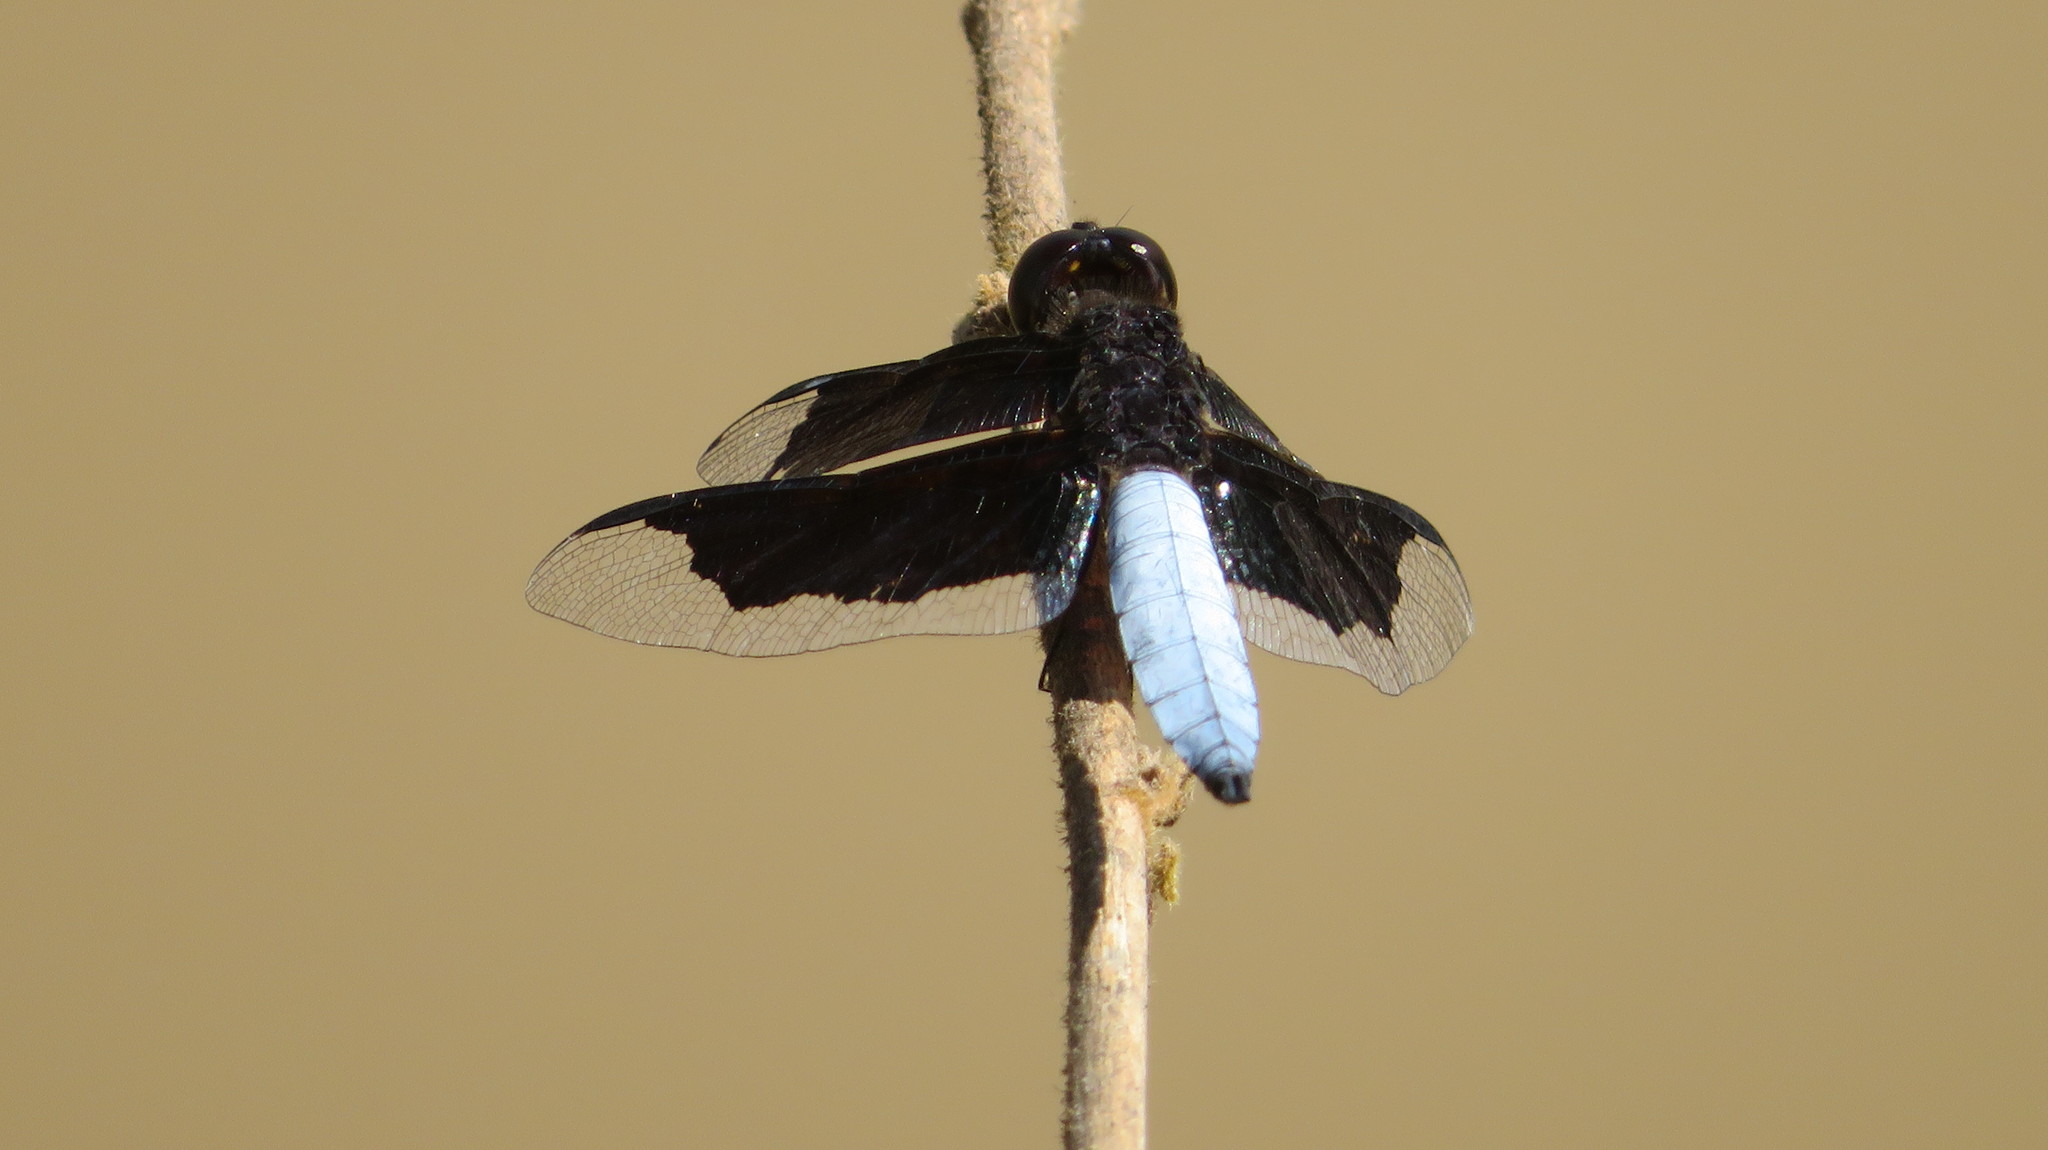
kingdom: Animalia
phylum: Arthropoda
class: Insecta
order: Odonata
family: Libellulidae
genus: Palpopleura
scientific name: Palpopleura lucia
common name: Lucia widow
